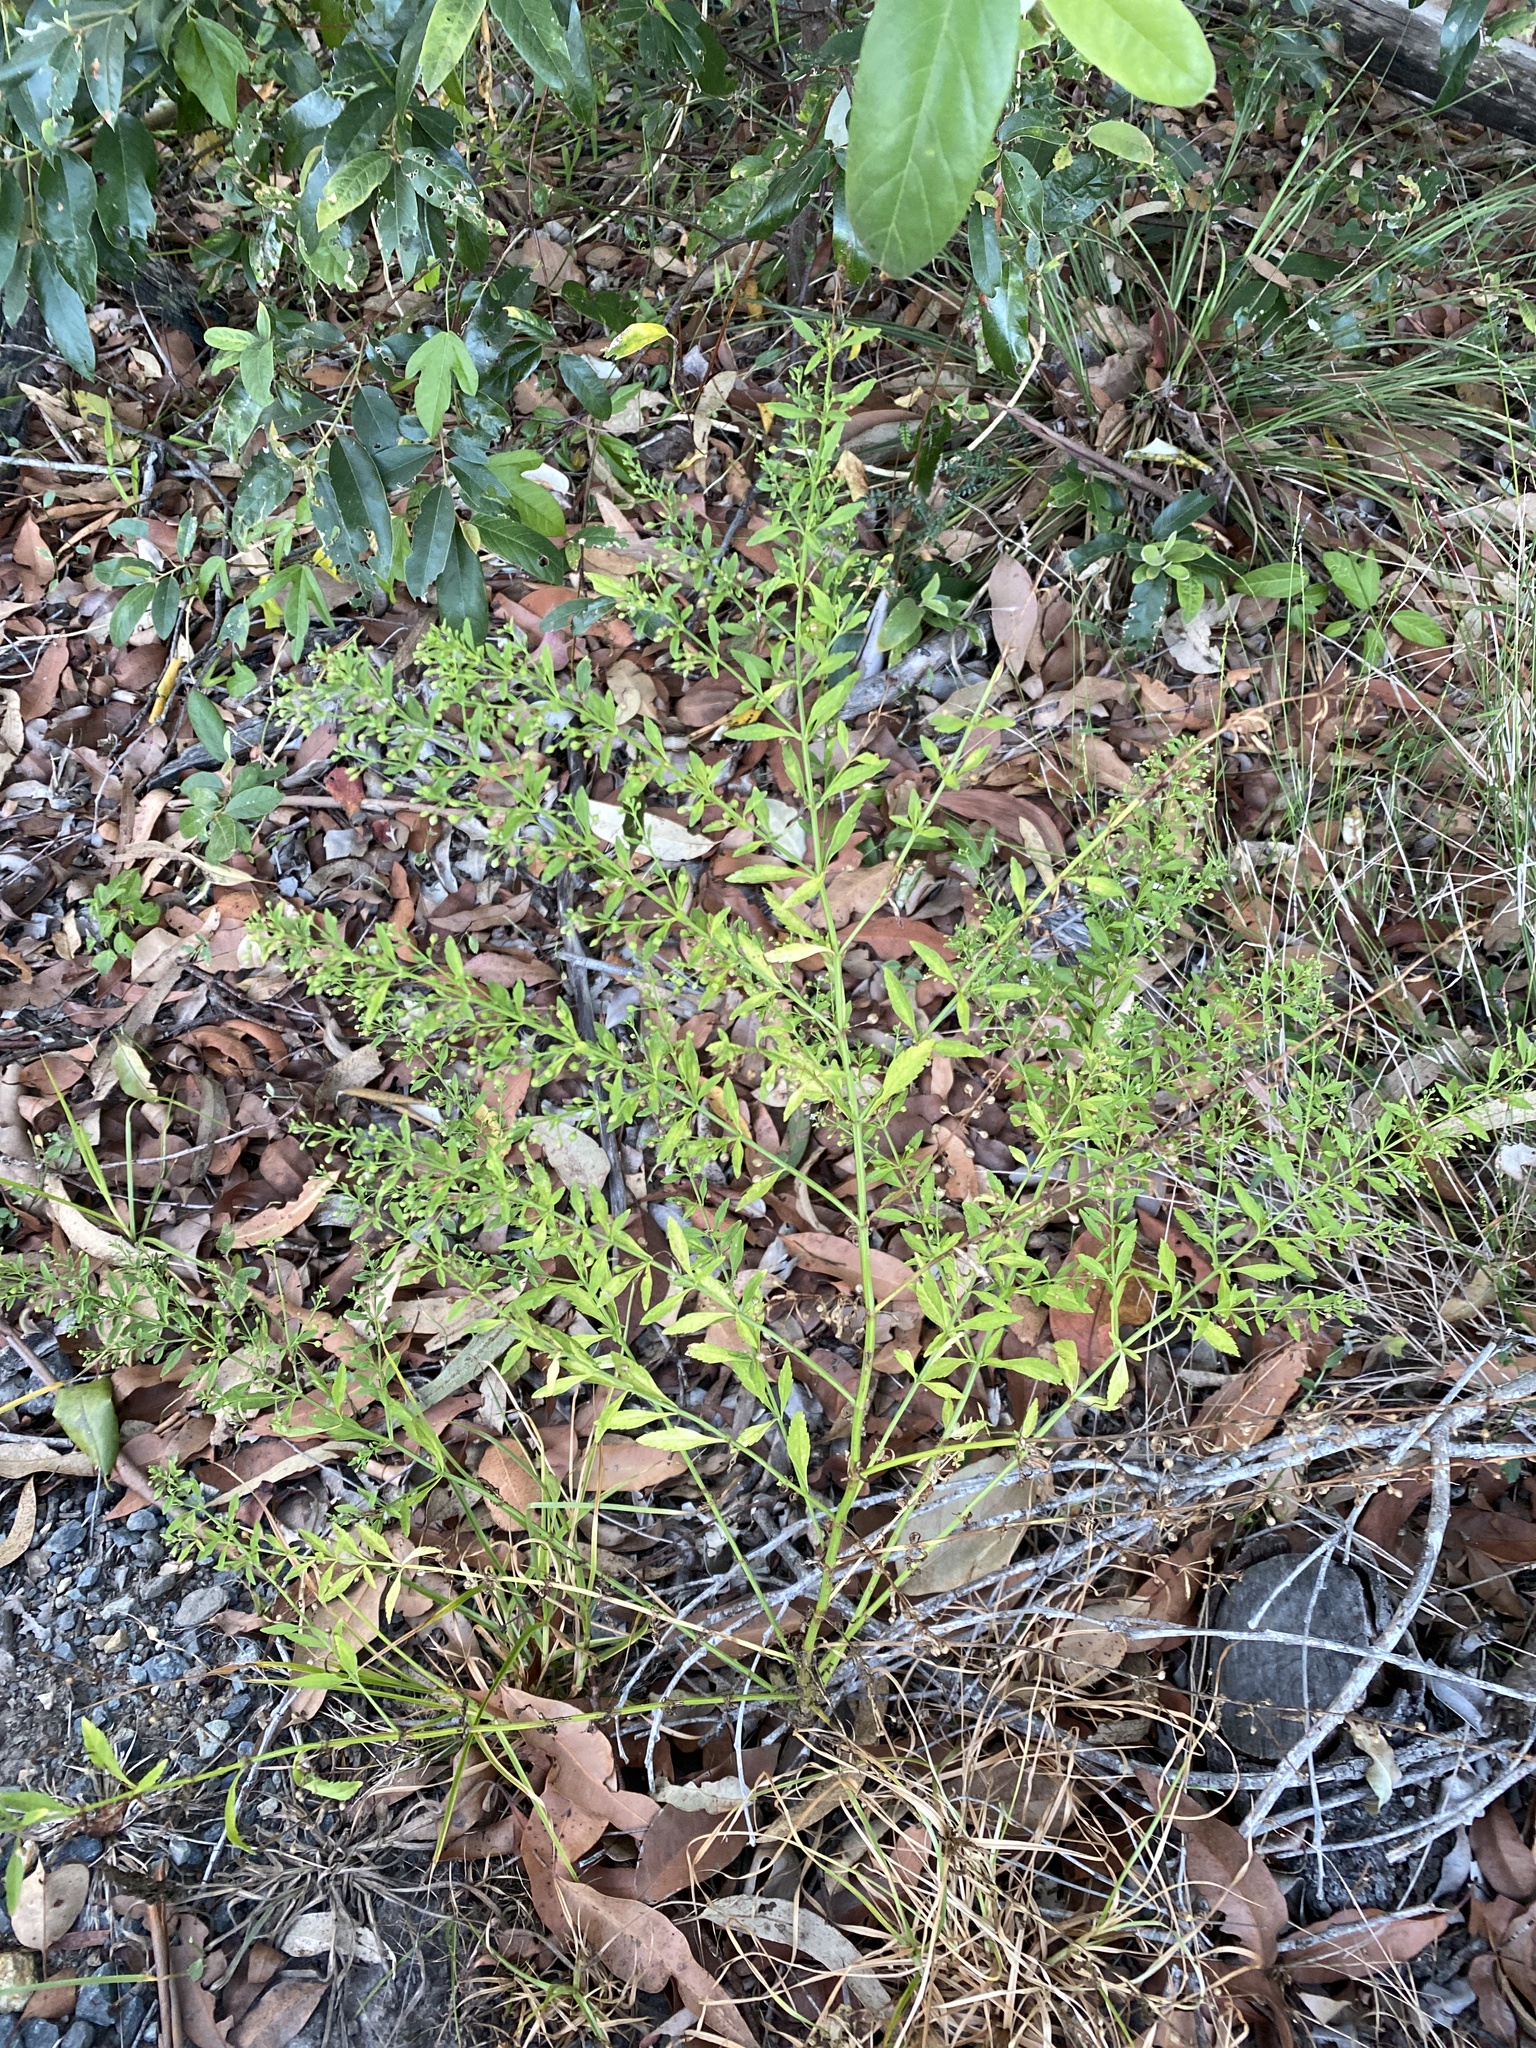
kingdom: Plantae
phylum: Tracheophyta
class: Magnoliopsida
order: Lamiales
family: Plantaginaceae
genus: Scoparia
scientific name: Scoparia dulcis
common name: Scoparia-weed
